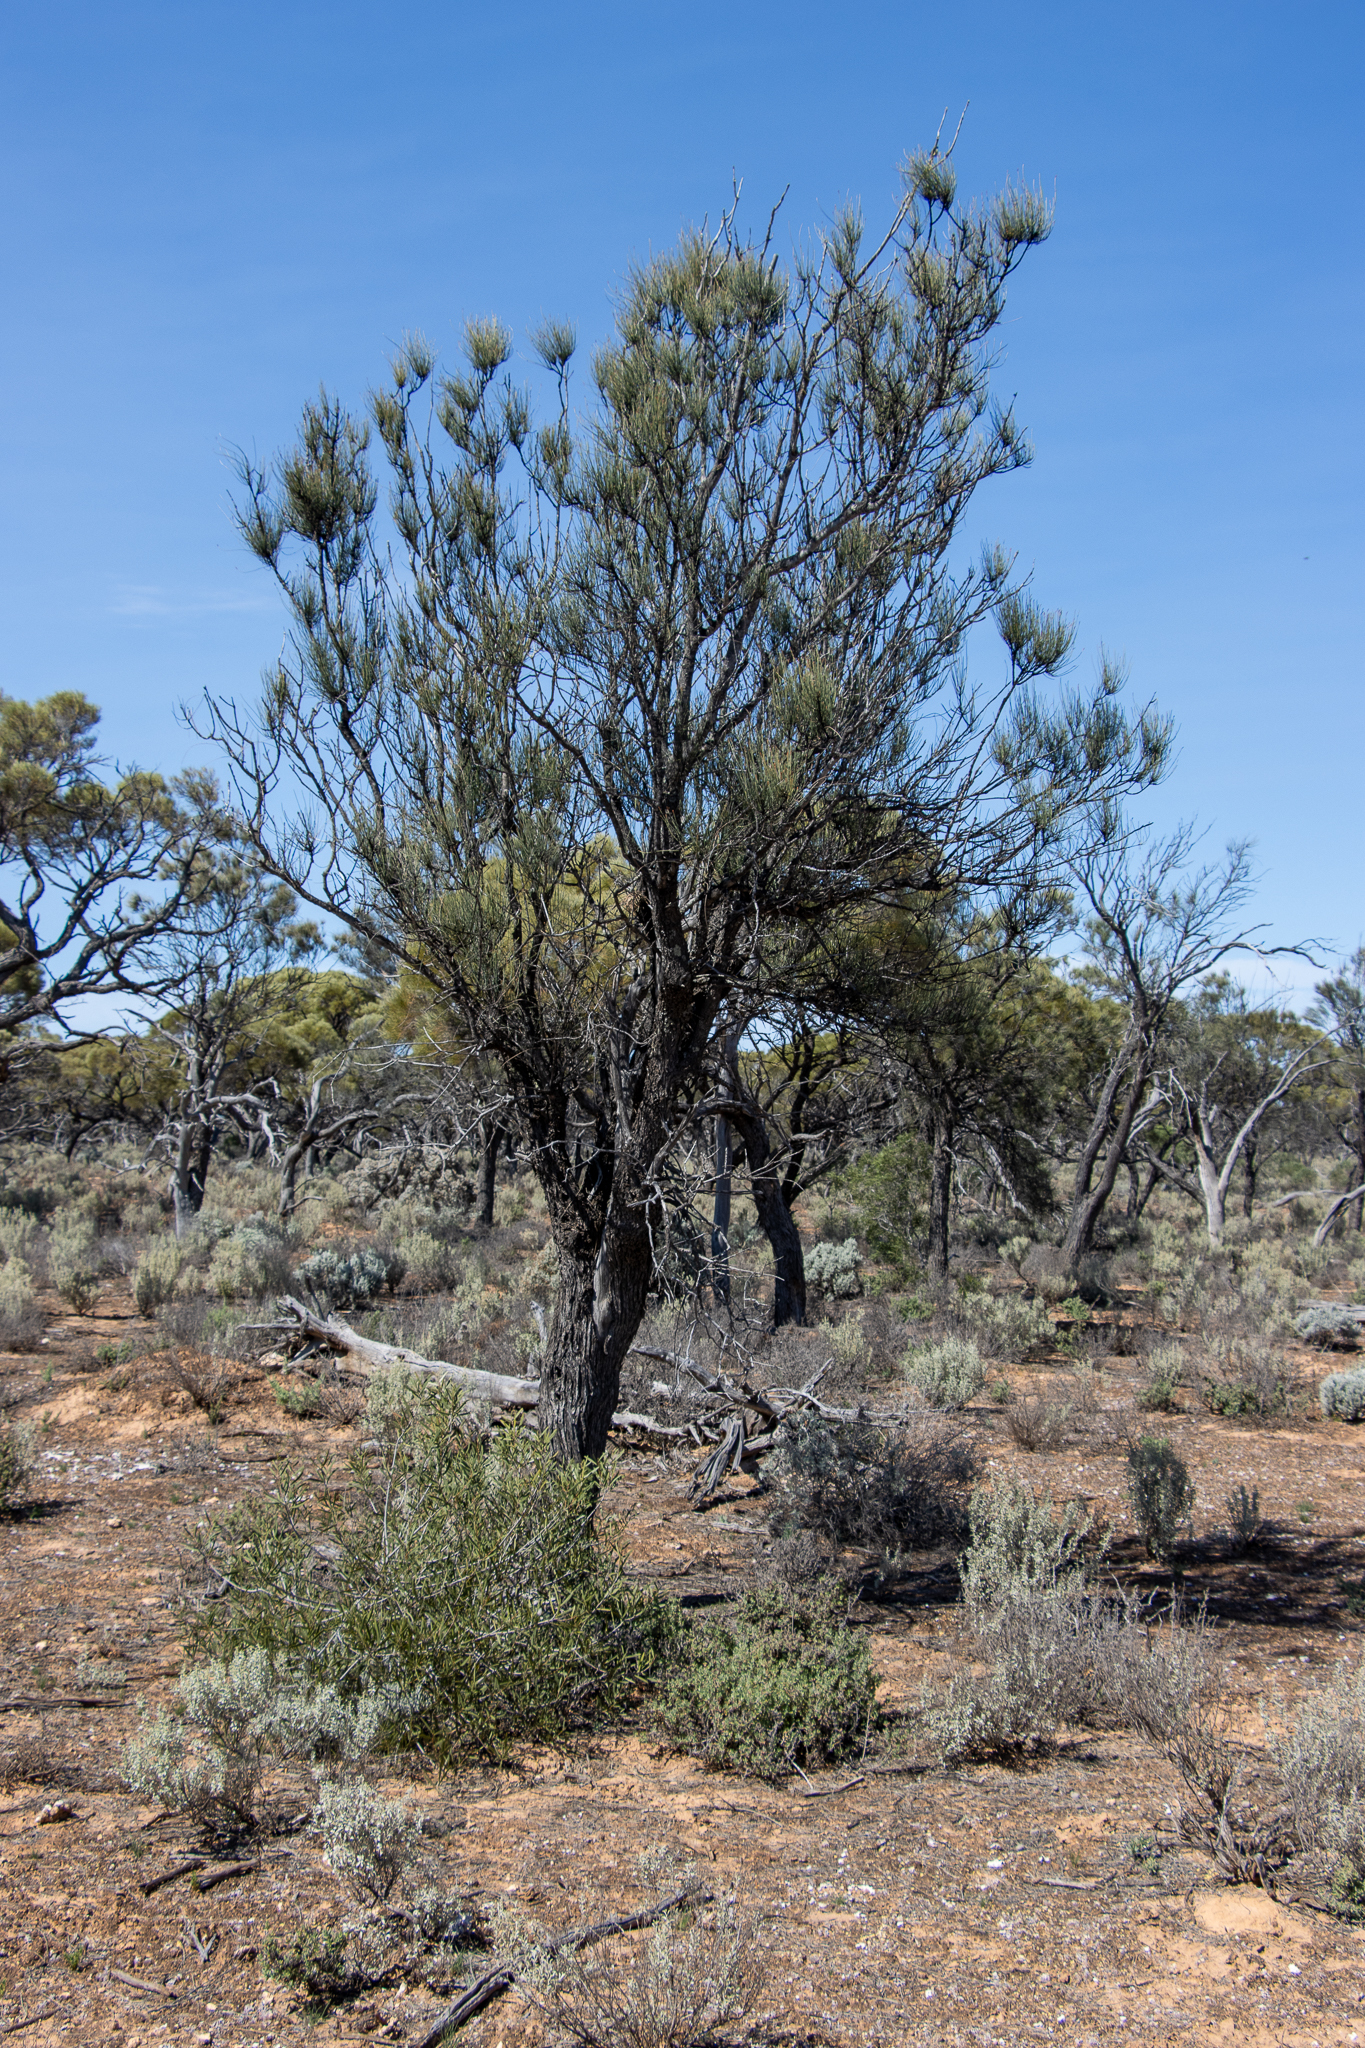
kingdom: Plantae
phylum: Tracheophyta
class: Magnoliopsida
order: Fagales
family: Casuarinaceae
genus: Casuarina
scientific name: Casuarina pauper
